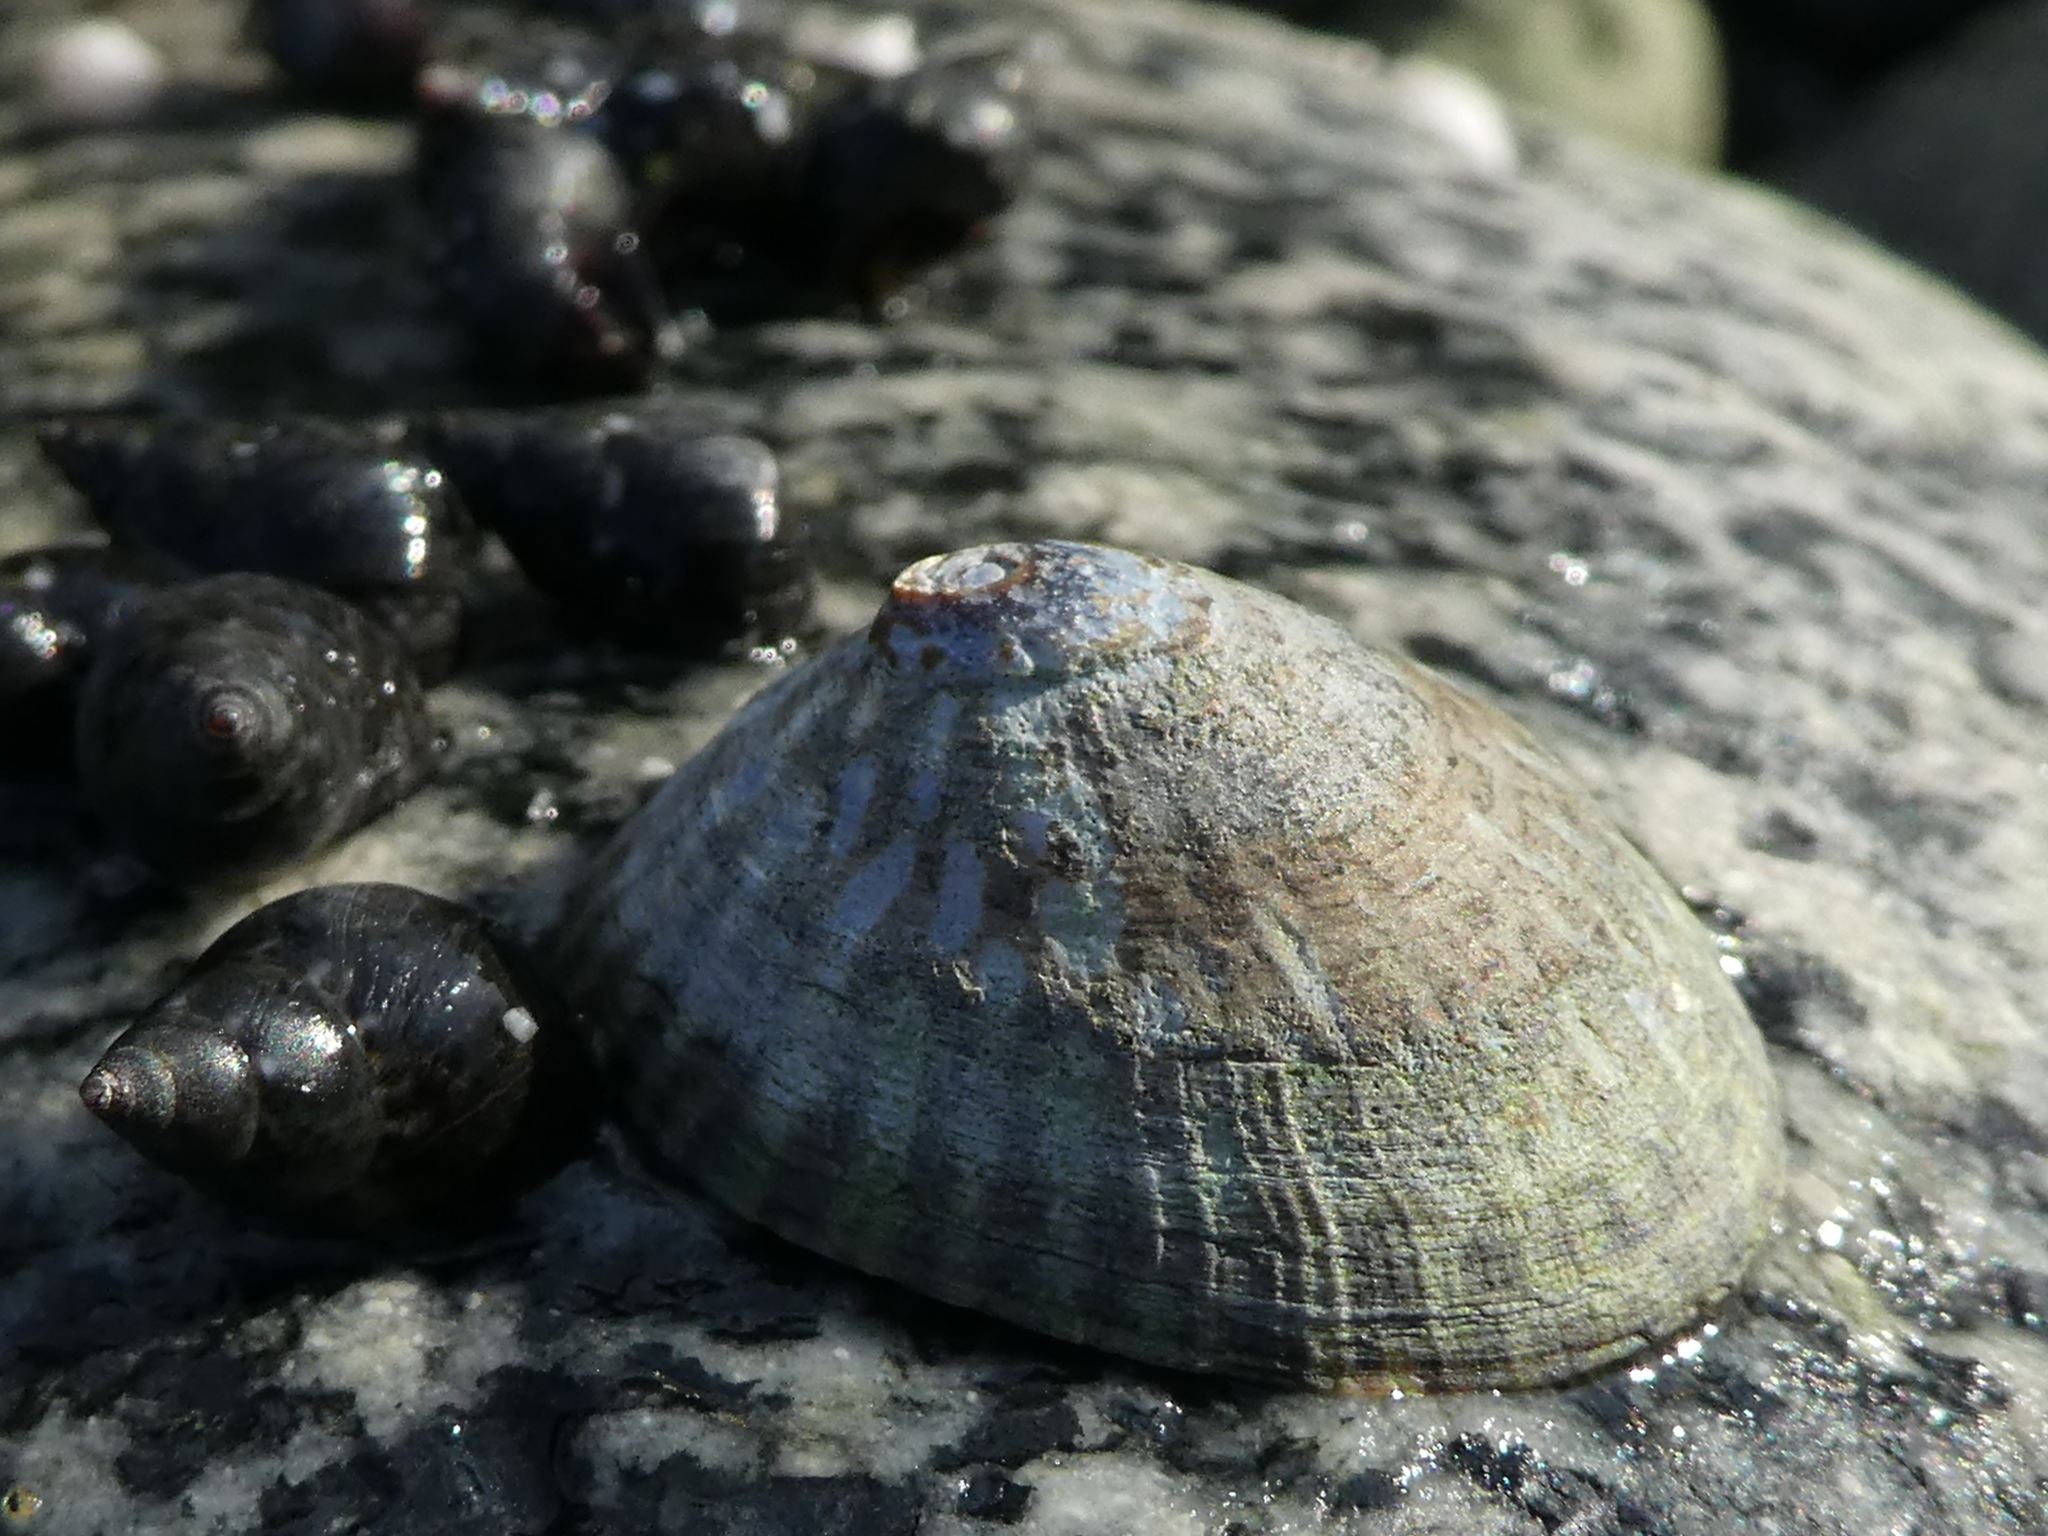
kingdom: Animalia
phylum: Mollusca
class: Gastropoda
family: Lottiidae
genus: Lottia
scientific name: Lottia persona
